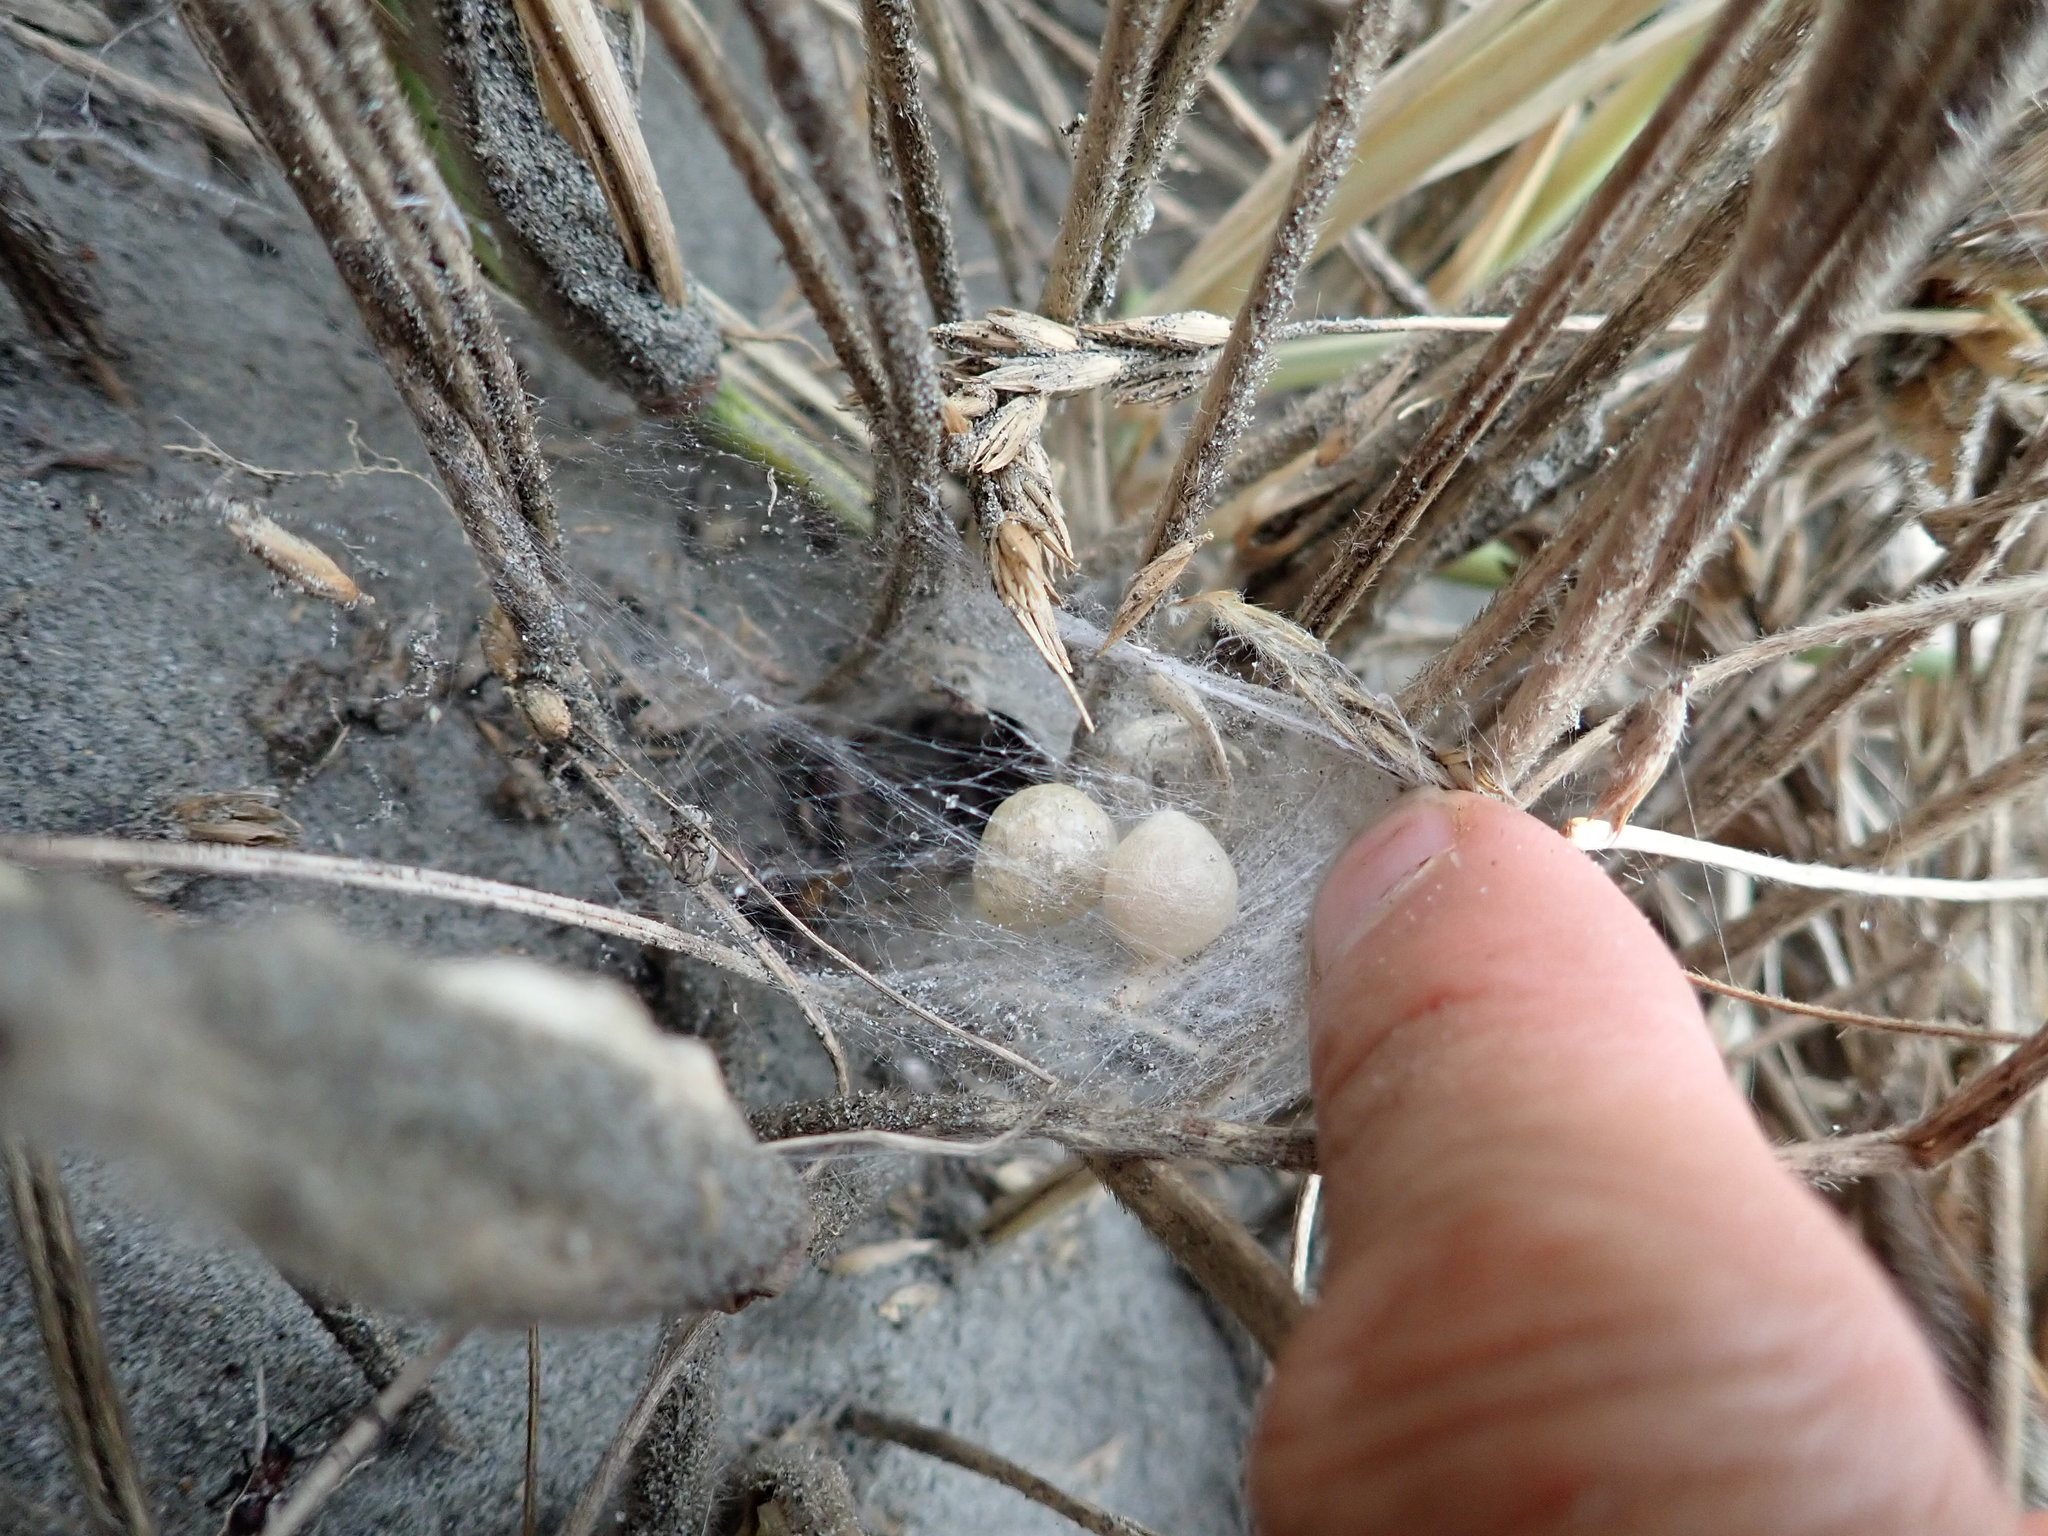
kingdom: Animalia
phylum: Arthropoda
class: Arachnida
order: Araneae
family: Theridiidae
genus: Latrodectus
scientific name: Latrodectus katipo
